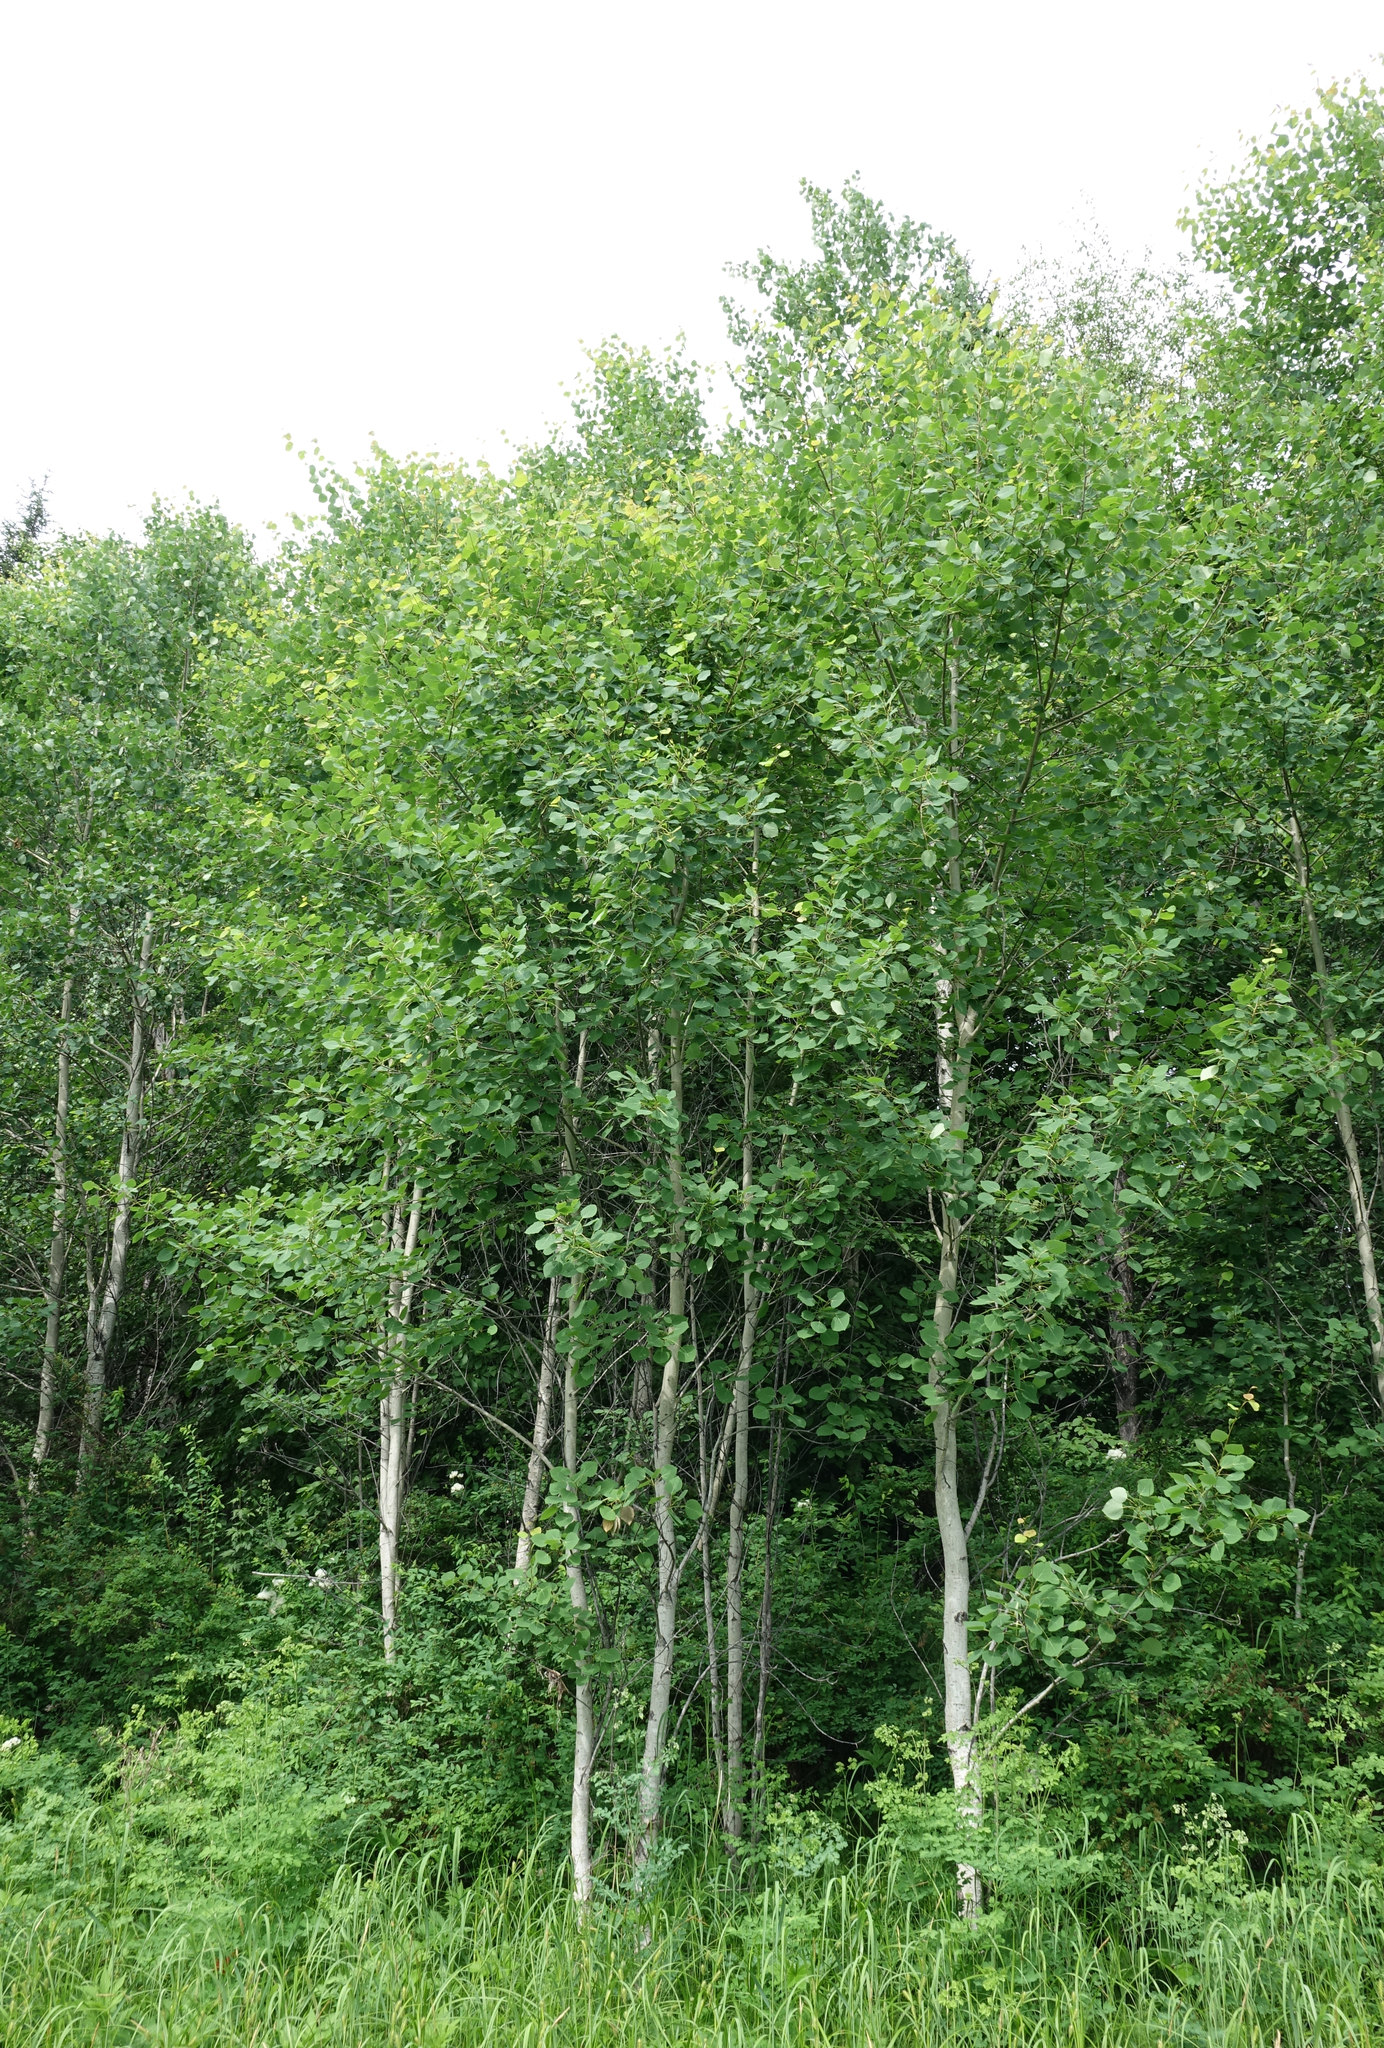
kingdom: Plantae
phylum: Tracheophyta
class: Magnoliopsida
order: Malpighiales
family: Salicaceae
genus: Populus
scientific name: Populus tremula
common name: European aspen
